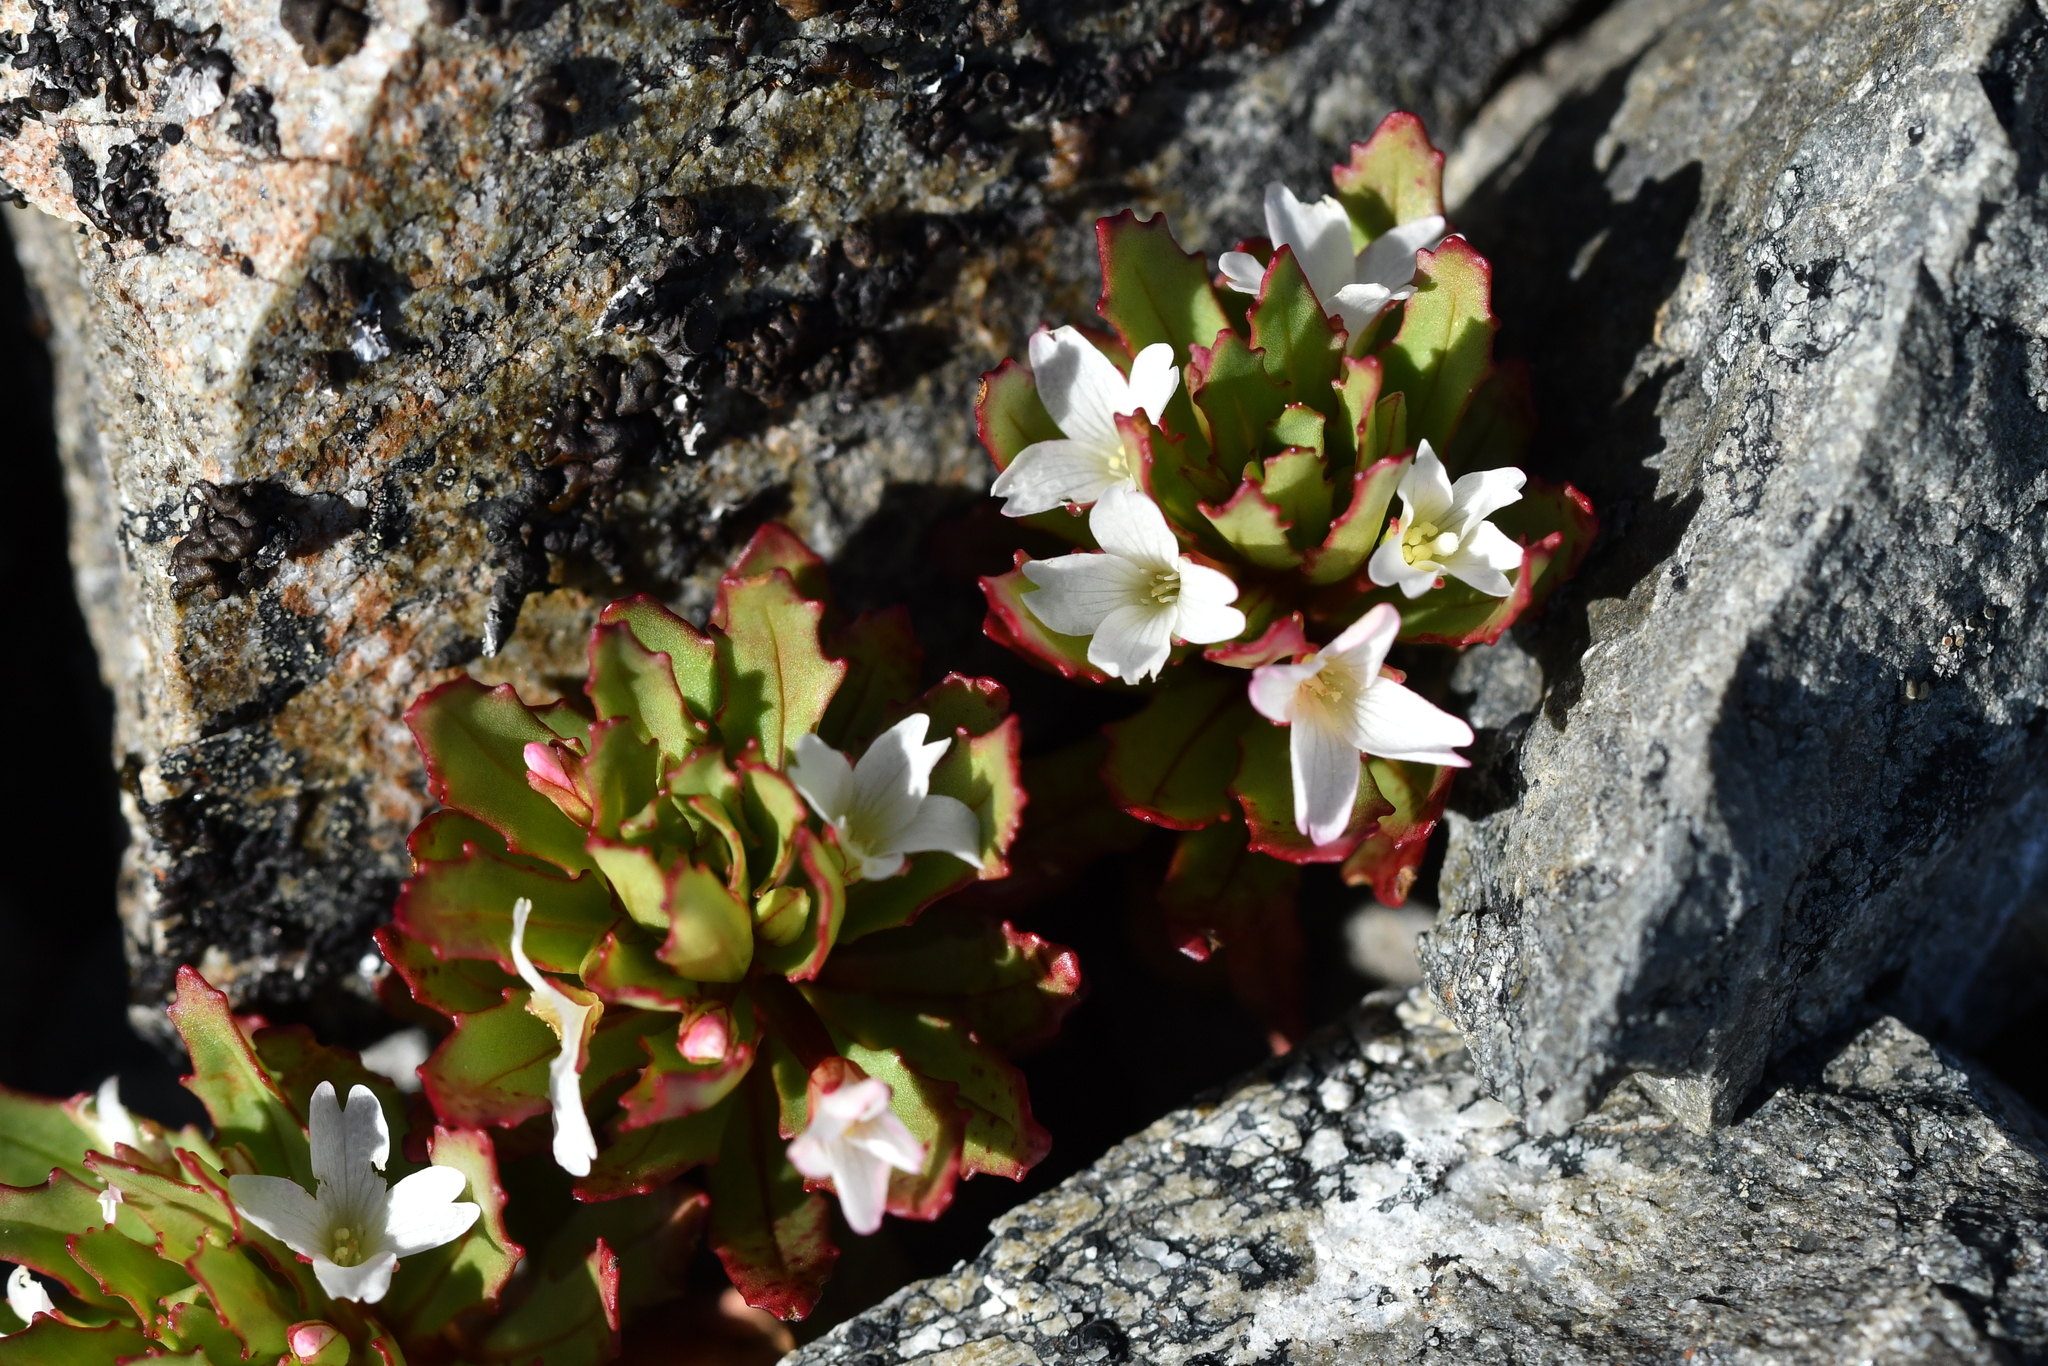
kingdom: Plantae
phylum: Tracheophyta
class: Magnoliopsida
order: Myrtales
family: Onagraceae
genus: Epilobium
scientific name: Epilobium pycnostachyum
